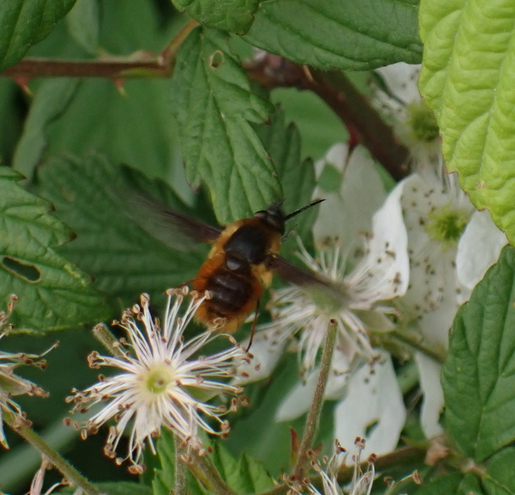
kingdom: Animalia
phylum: Arthropoda
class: Insecta
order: Diptera
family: Bombyliidae
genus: Bombylius
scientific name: Bombylius major
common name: Bee fly
